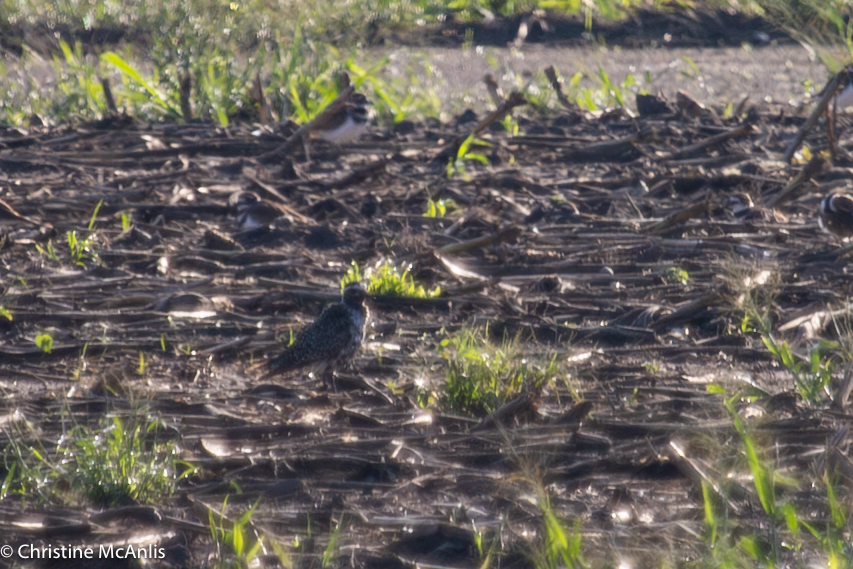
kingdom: Animalia
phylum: Chordata
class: Aves
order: Charadriiformes
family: Charadriidae
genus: Pluvialis
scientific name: Pluvialis dominica
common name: American golden plover
